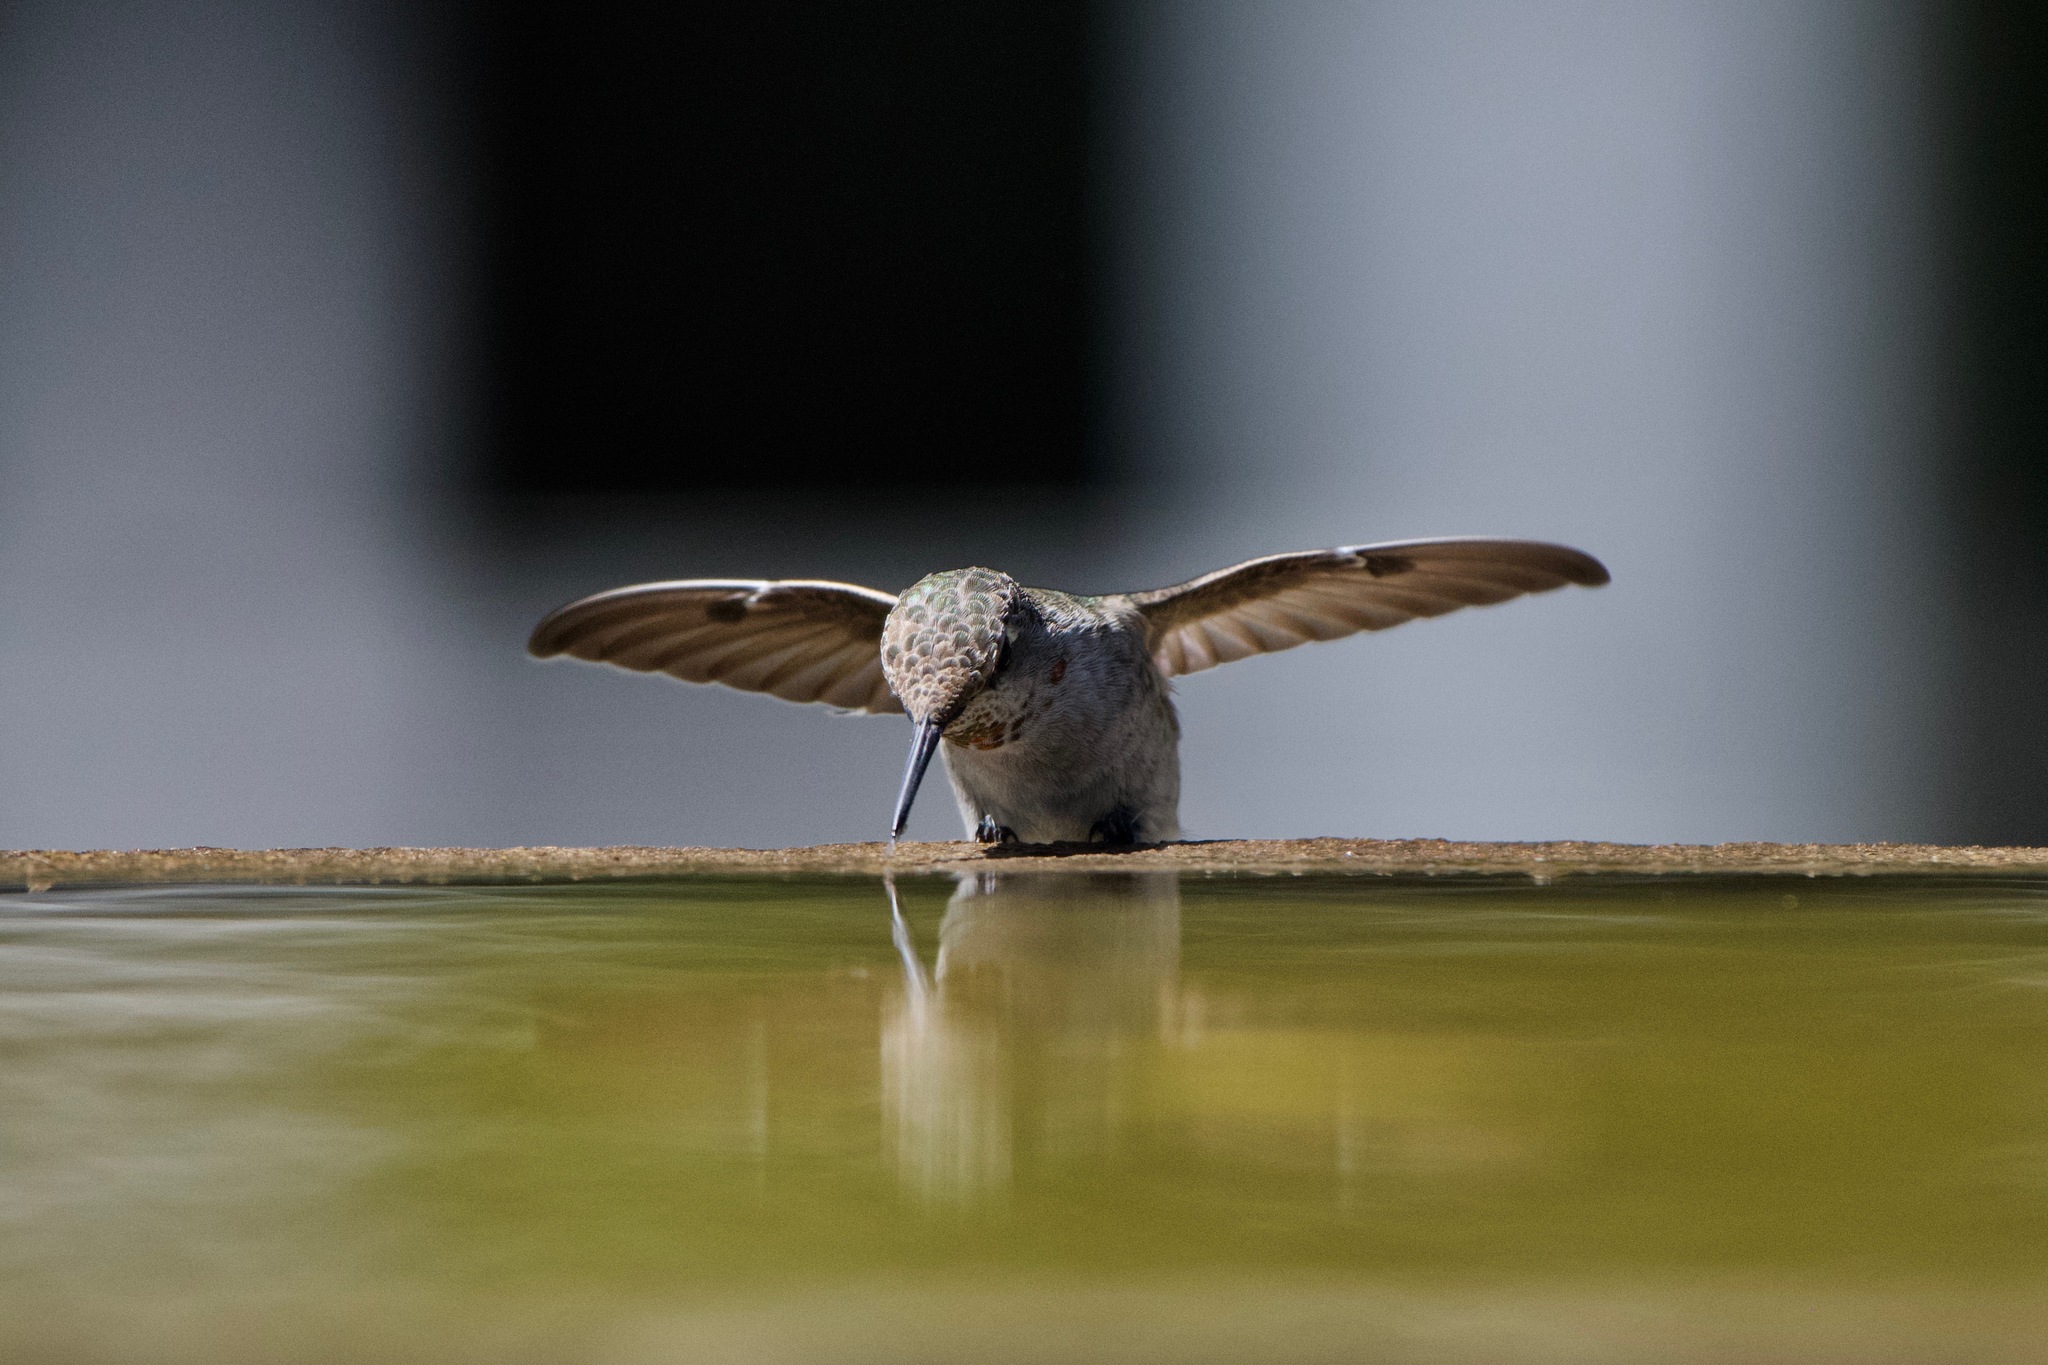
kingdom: Animalia
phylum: Chordata
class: Aves
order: Apodiformes
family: Trochilidae
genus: Calypte
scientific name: Calypte anna
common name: Anna's hummingbird
